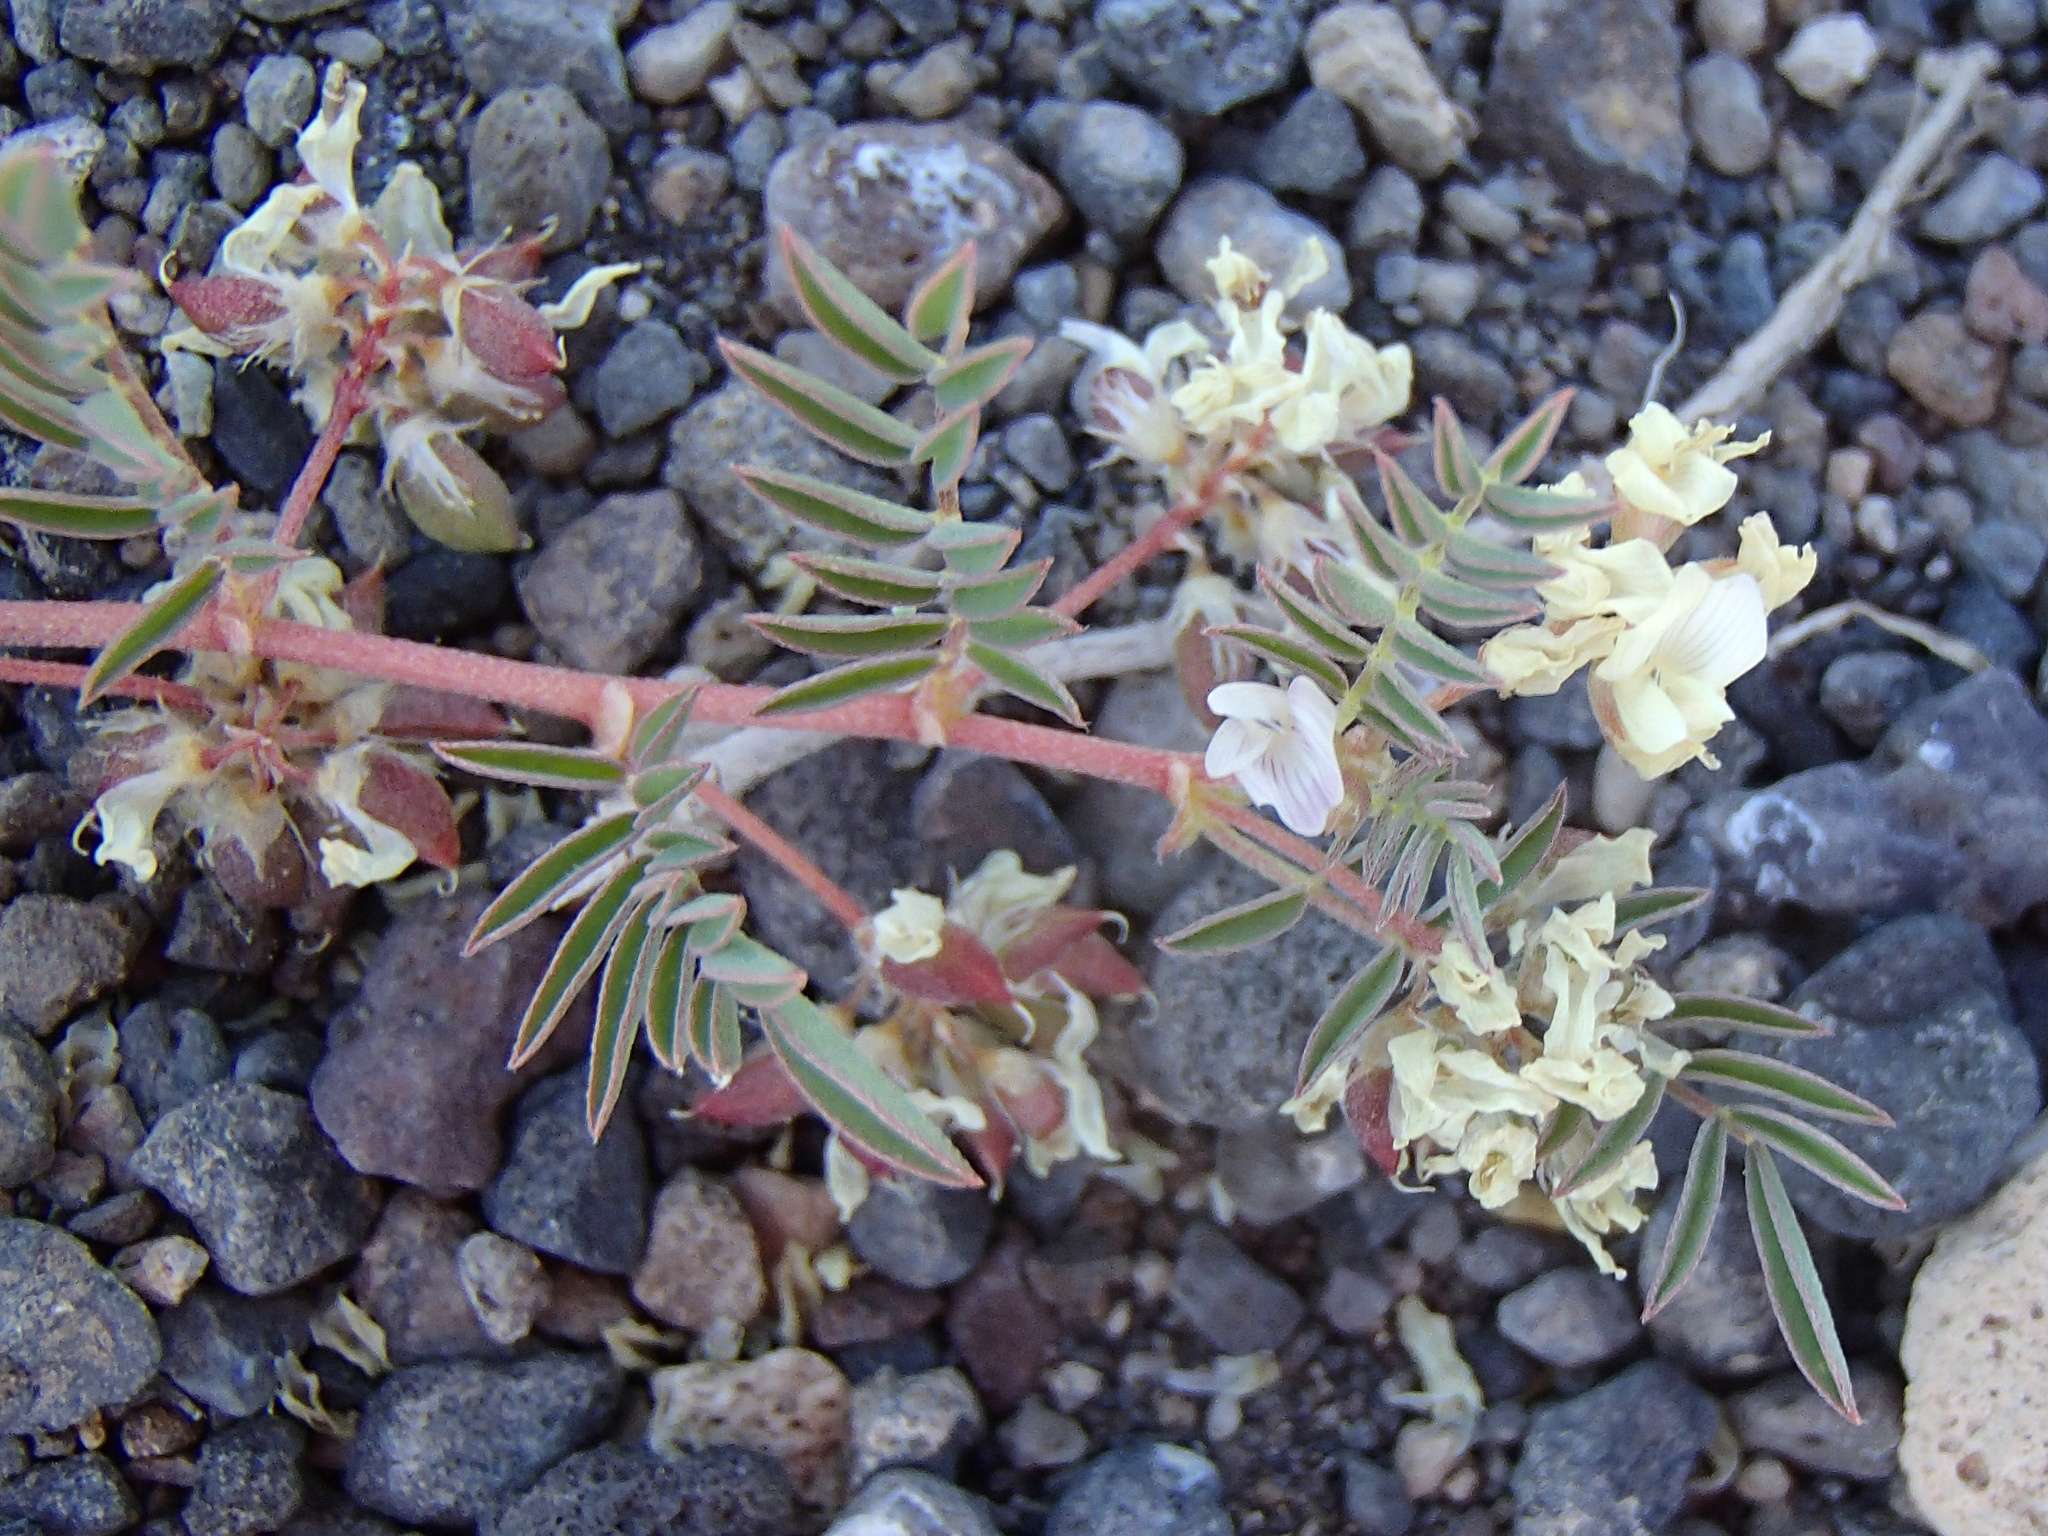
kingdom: Plantae
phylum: Tracheophyta
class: Magnoliopsida
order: Fabales
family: Fabaceae
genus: Astragalus
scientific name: Astragalus lemmonii
